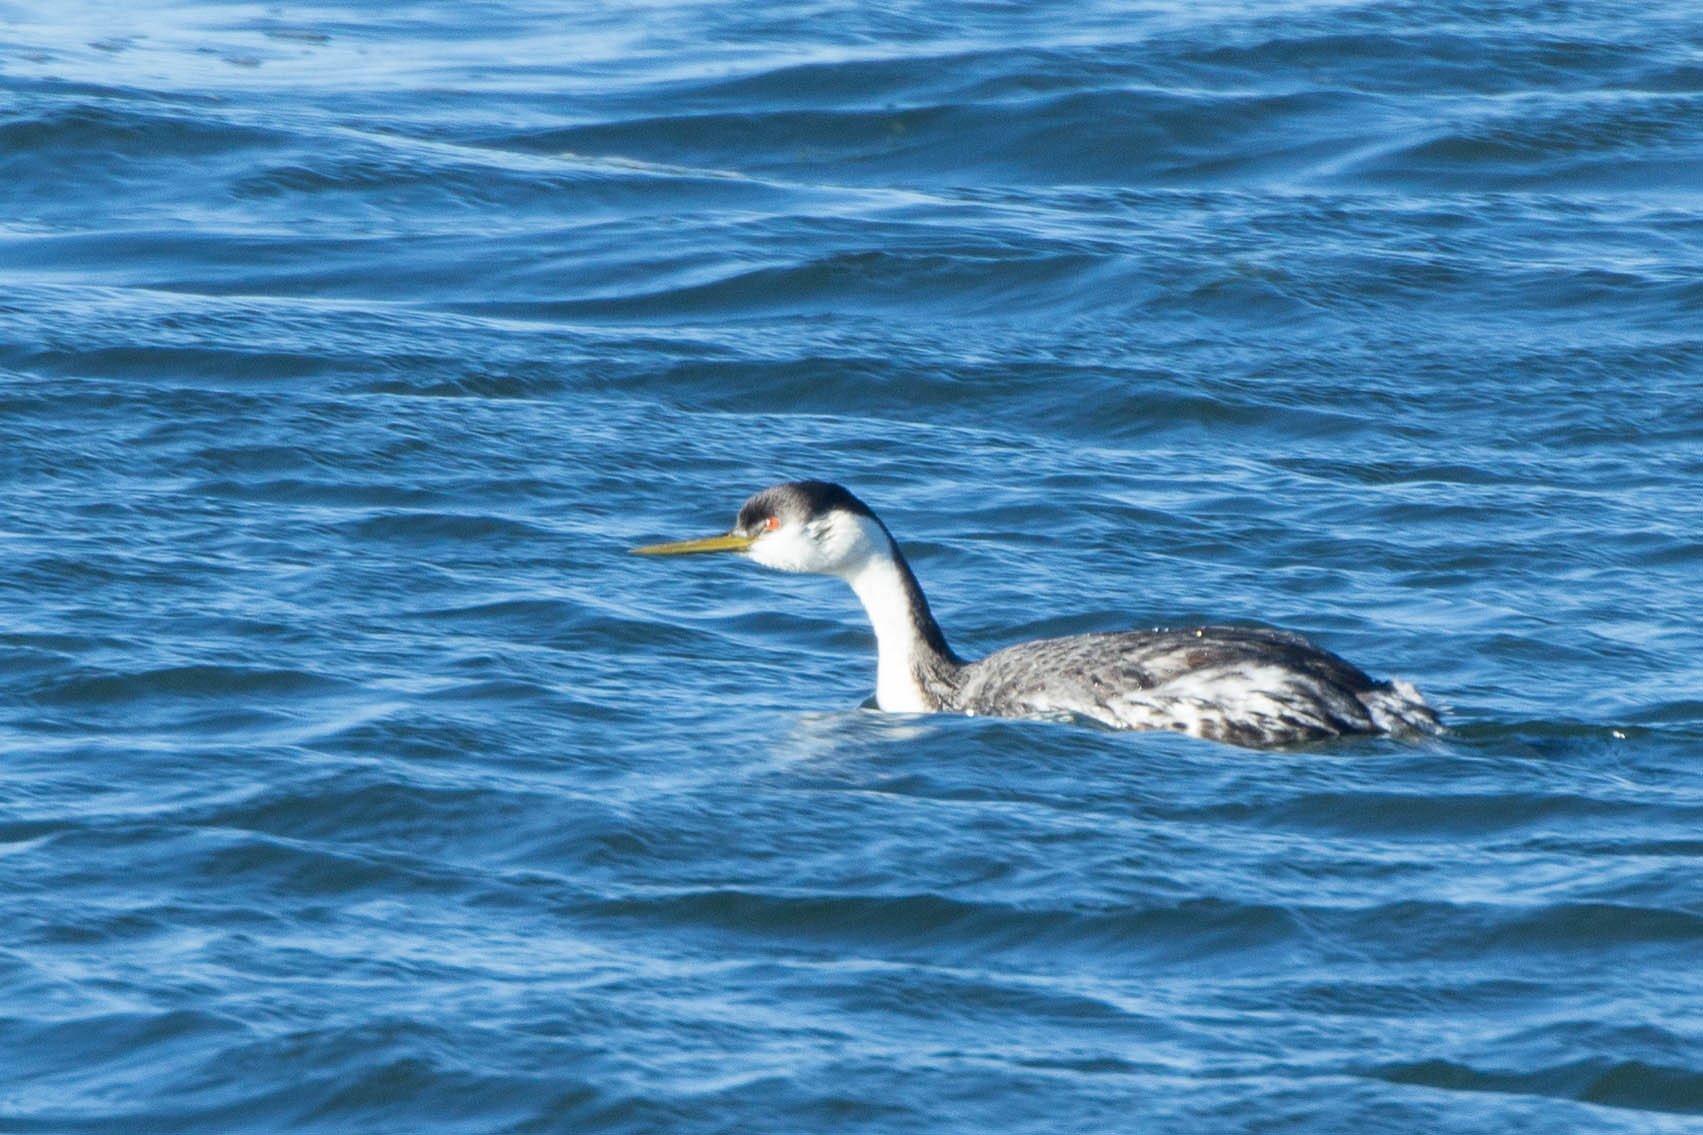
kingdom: Animalia
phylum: Chordata
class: Aves
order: Podicipediformes
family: Podicipedidae
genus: Aechmophorus
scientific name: Aechmophorus occidentalis
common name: Western grebe
